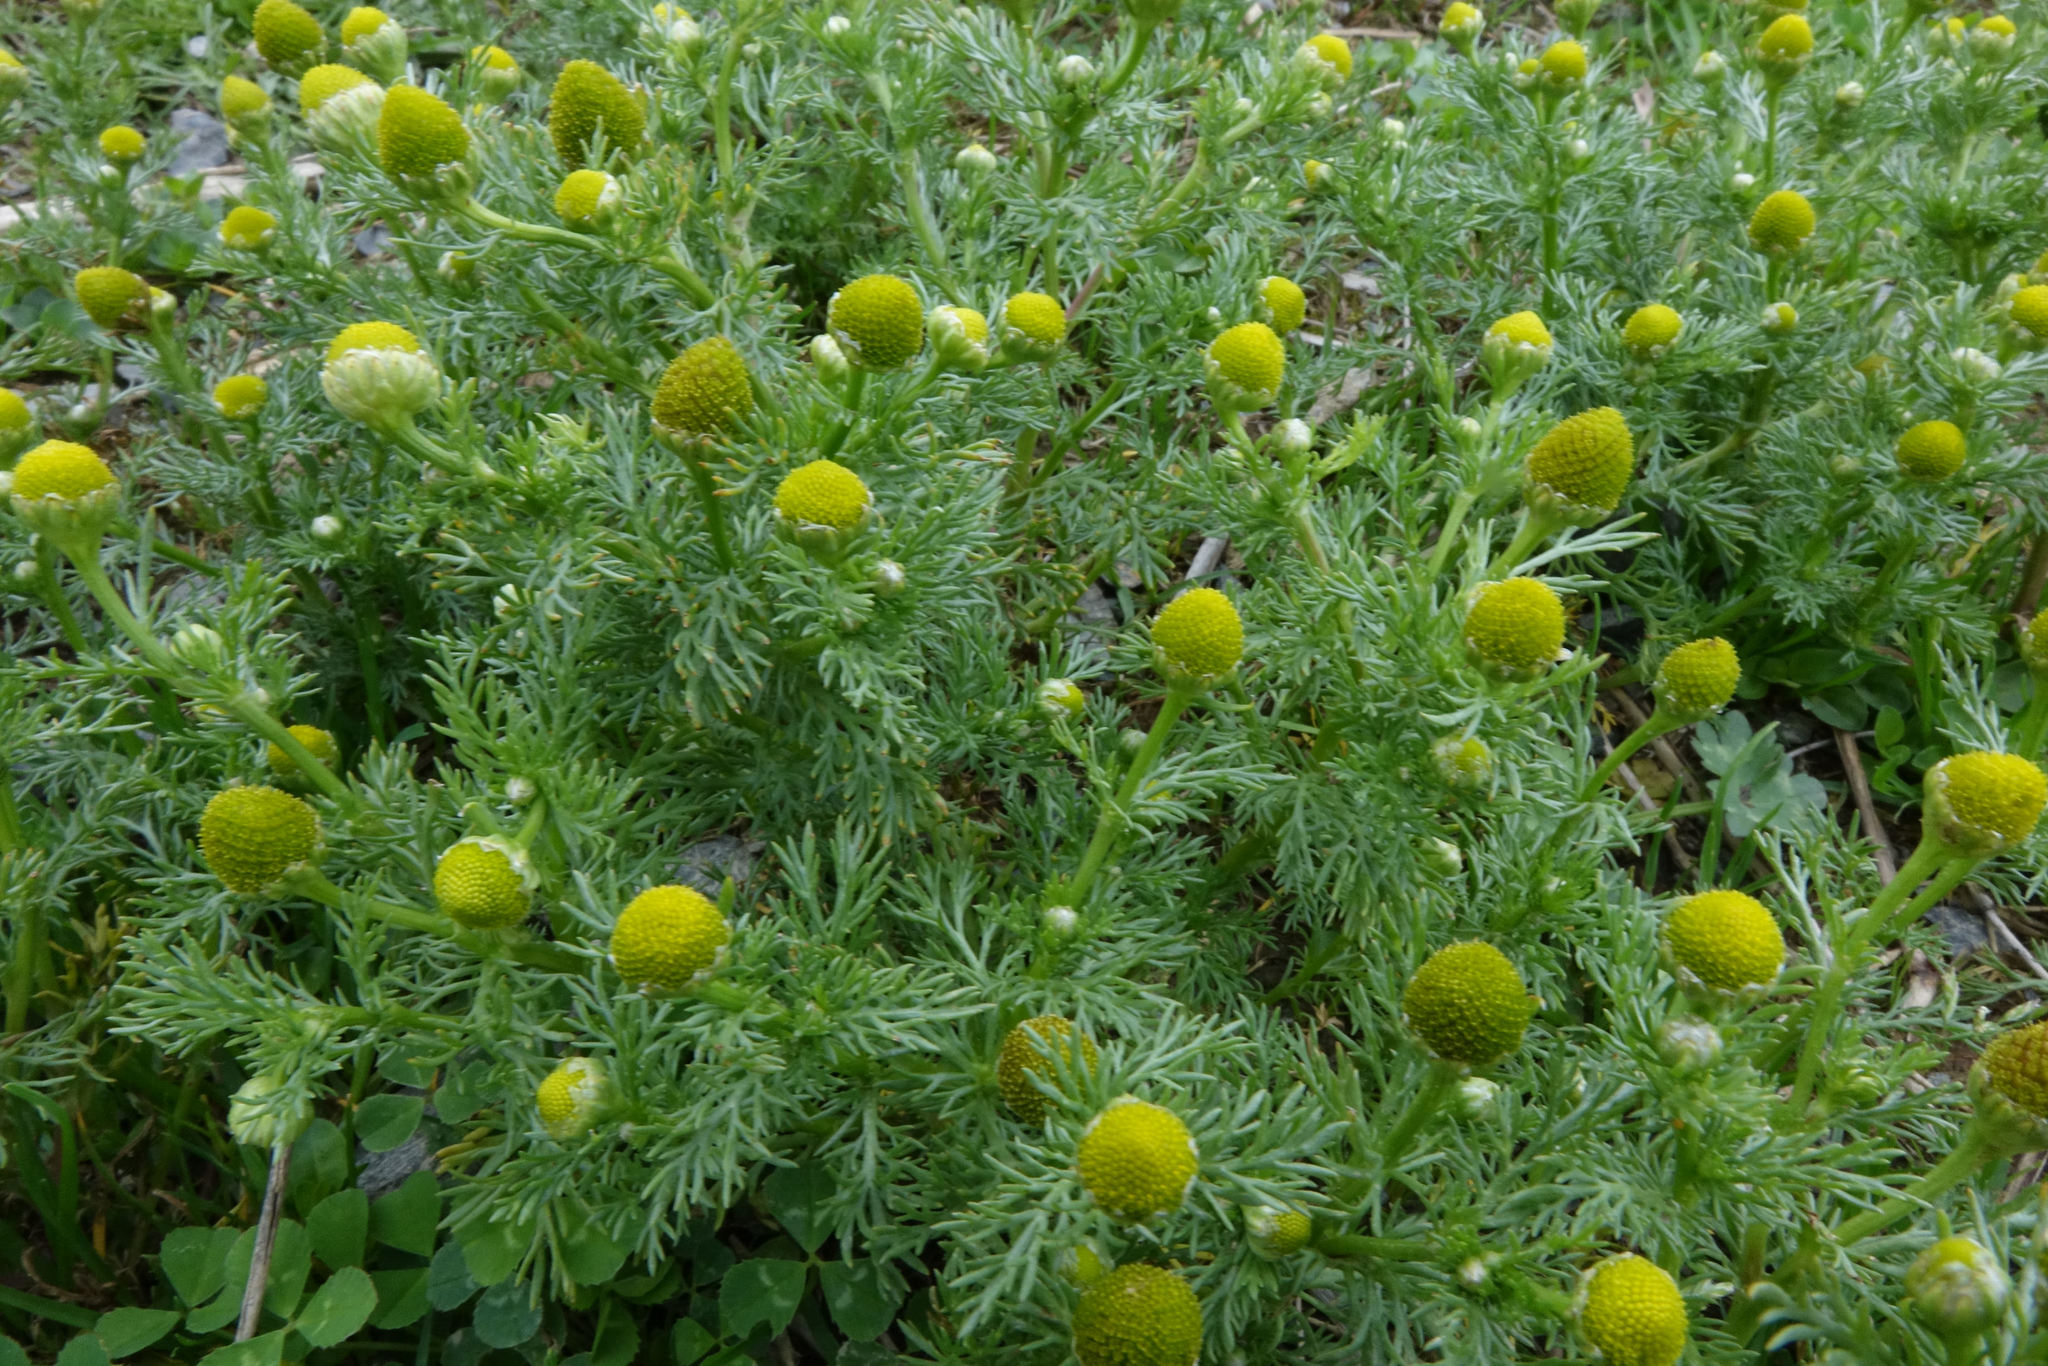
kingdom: Plantae
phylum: Tracheophyta
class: Magnoliopsida
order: Asterales
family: Asteraceae
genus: Matricaria
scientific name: Matricaria discoidea
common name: Disc mayweed
